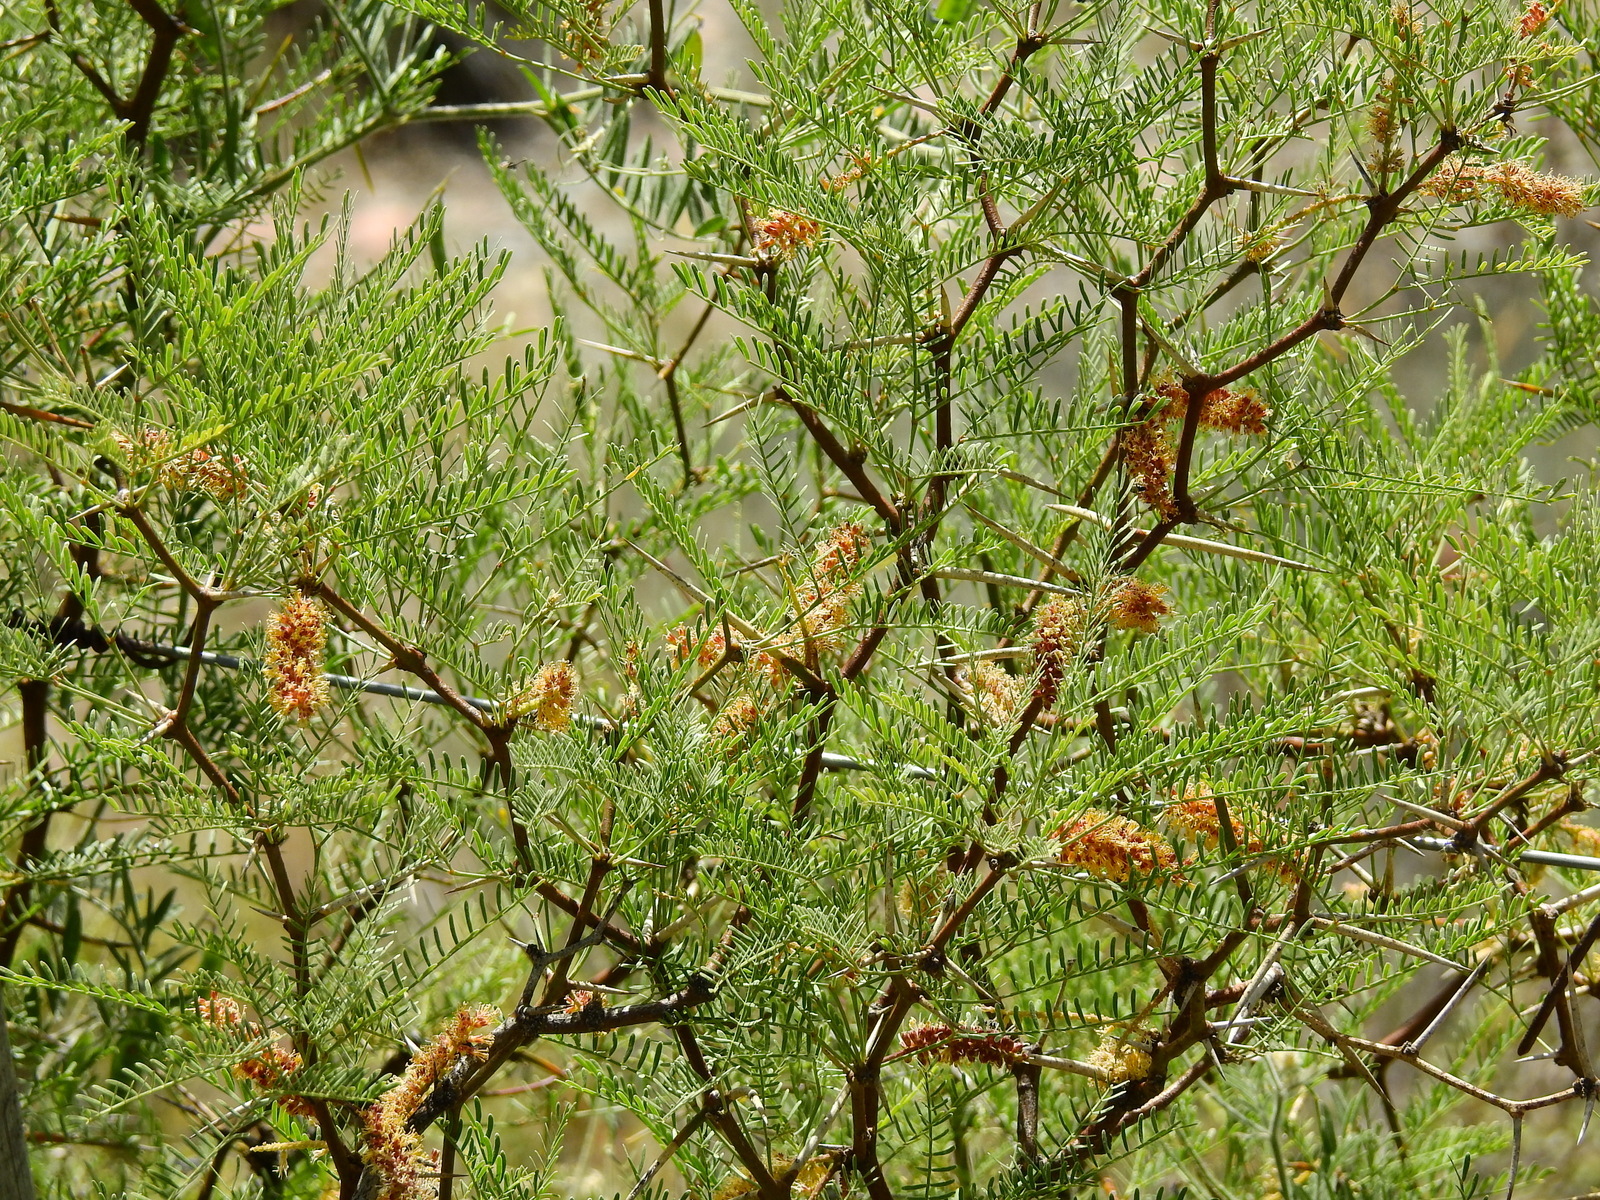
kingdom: Plantae
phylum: Tracheophyta
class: Magnoliopsida
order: Fabales
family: Fabaceae
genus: Prosopis
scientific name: Prosopis flexuosa
